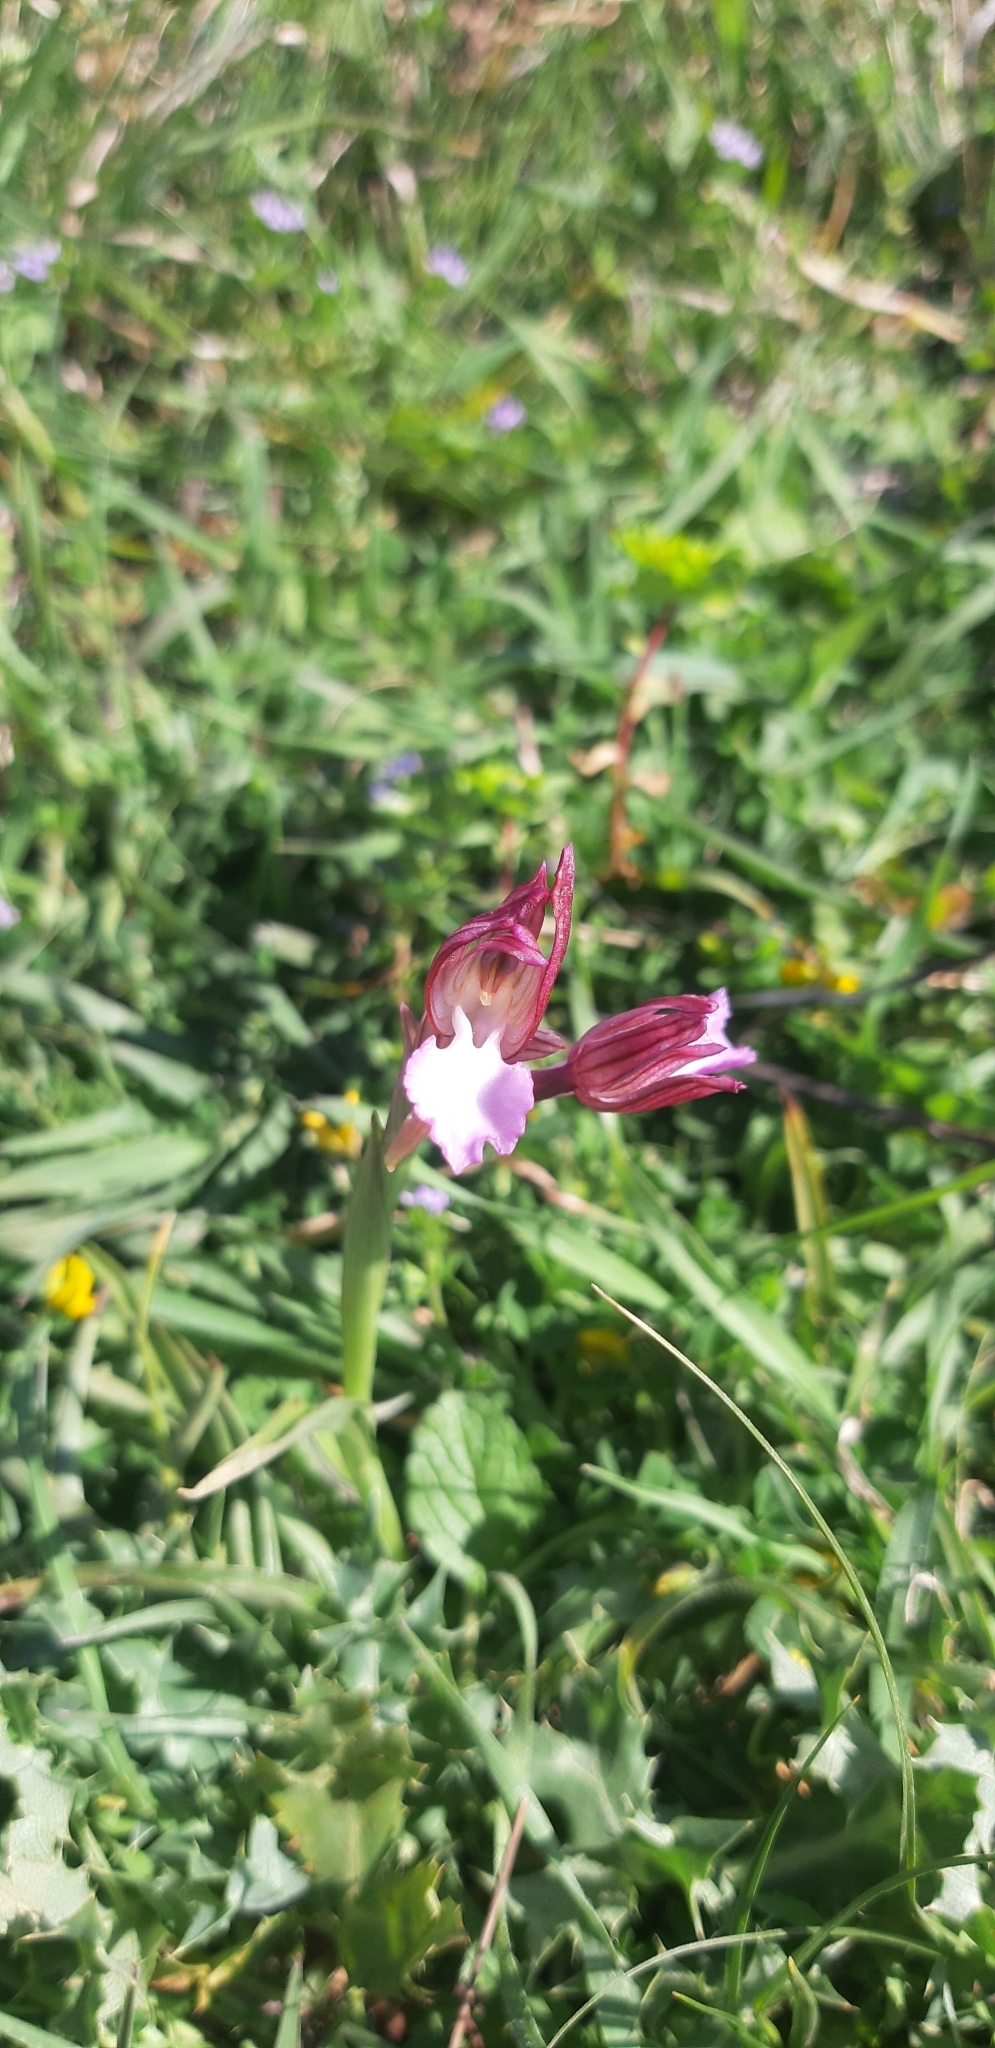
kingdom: Plantae
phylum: Tracheophyta
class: Liliopsida
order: Asparagales
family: Orchidaceae
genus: Anacamptis
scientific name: Anacamptis papilionacea
